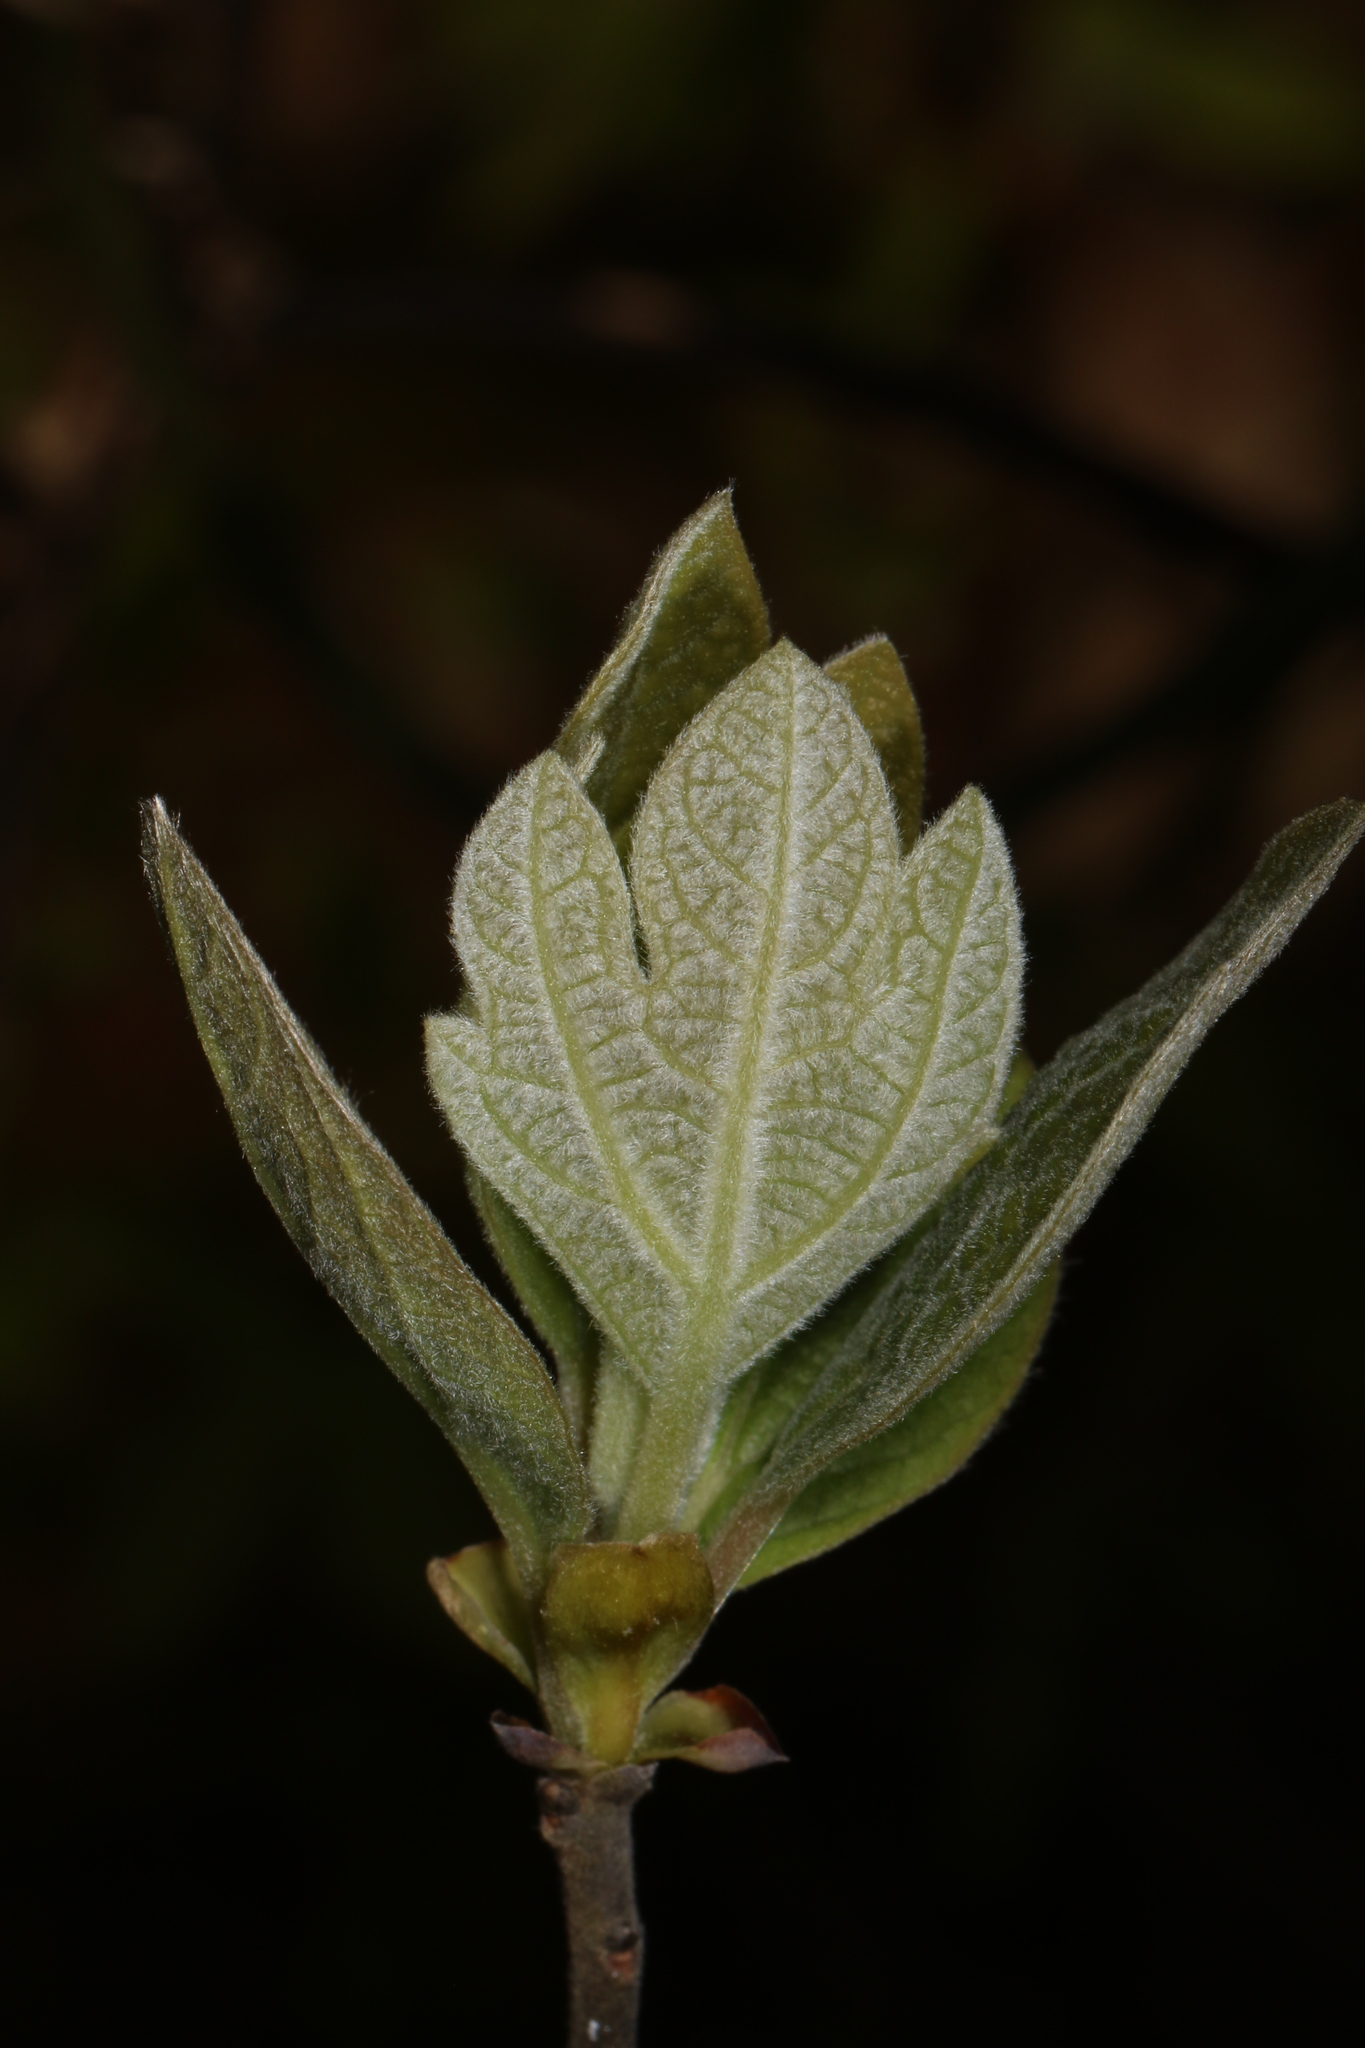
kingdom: Plantae
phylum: Tracheophyta
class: Magnoliopsida
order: Laurales
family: Lauraceae
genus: Sassafras
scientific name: Sassafras albidum
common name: Sassafras
